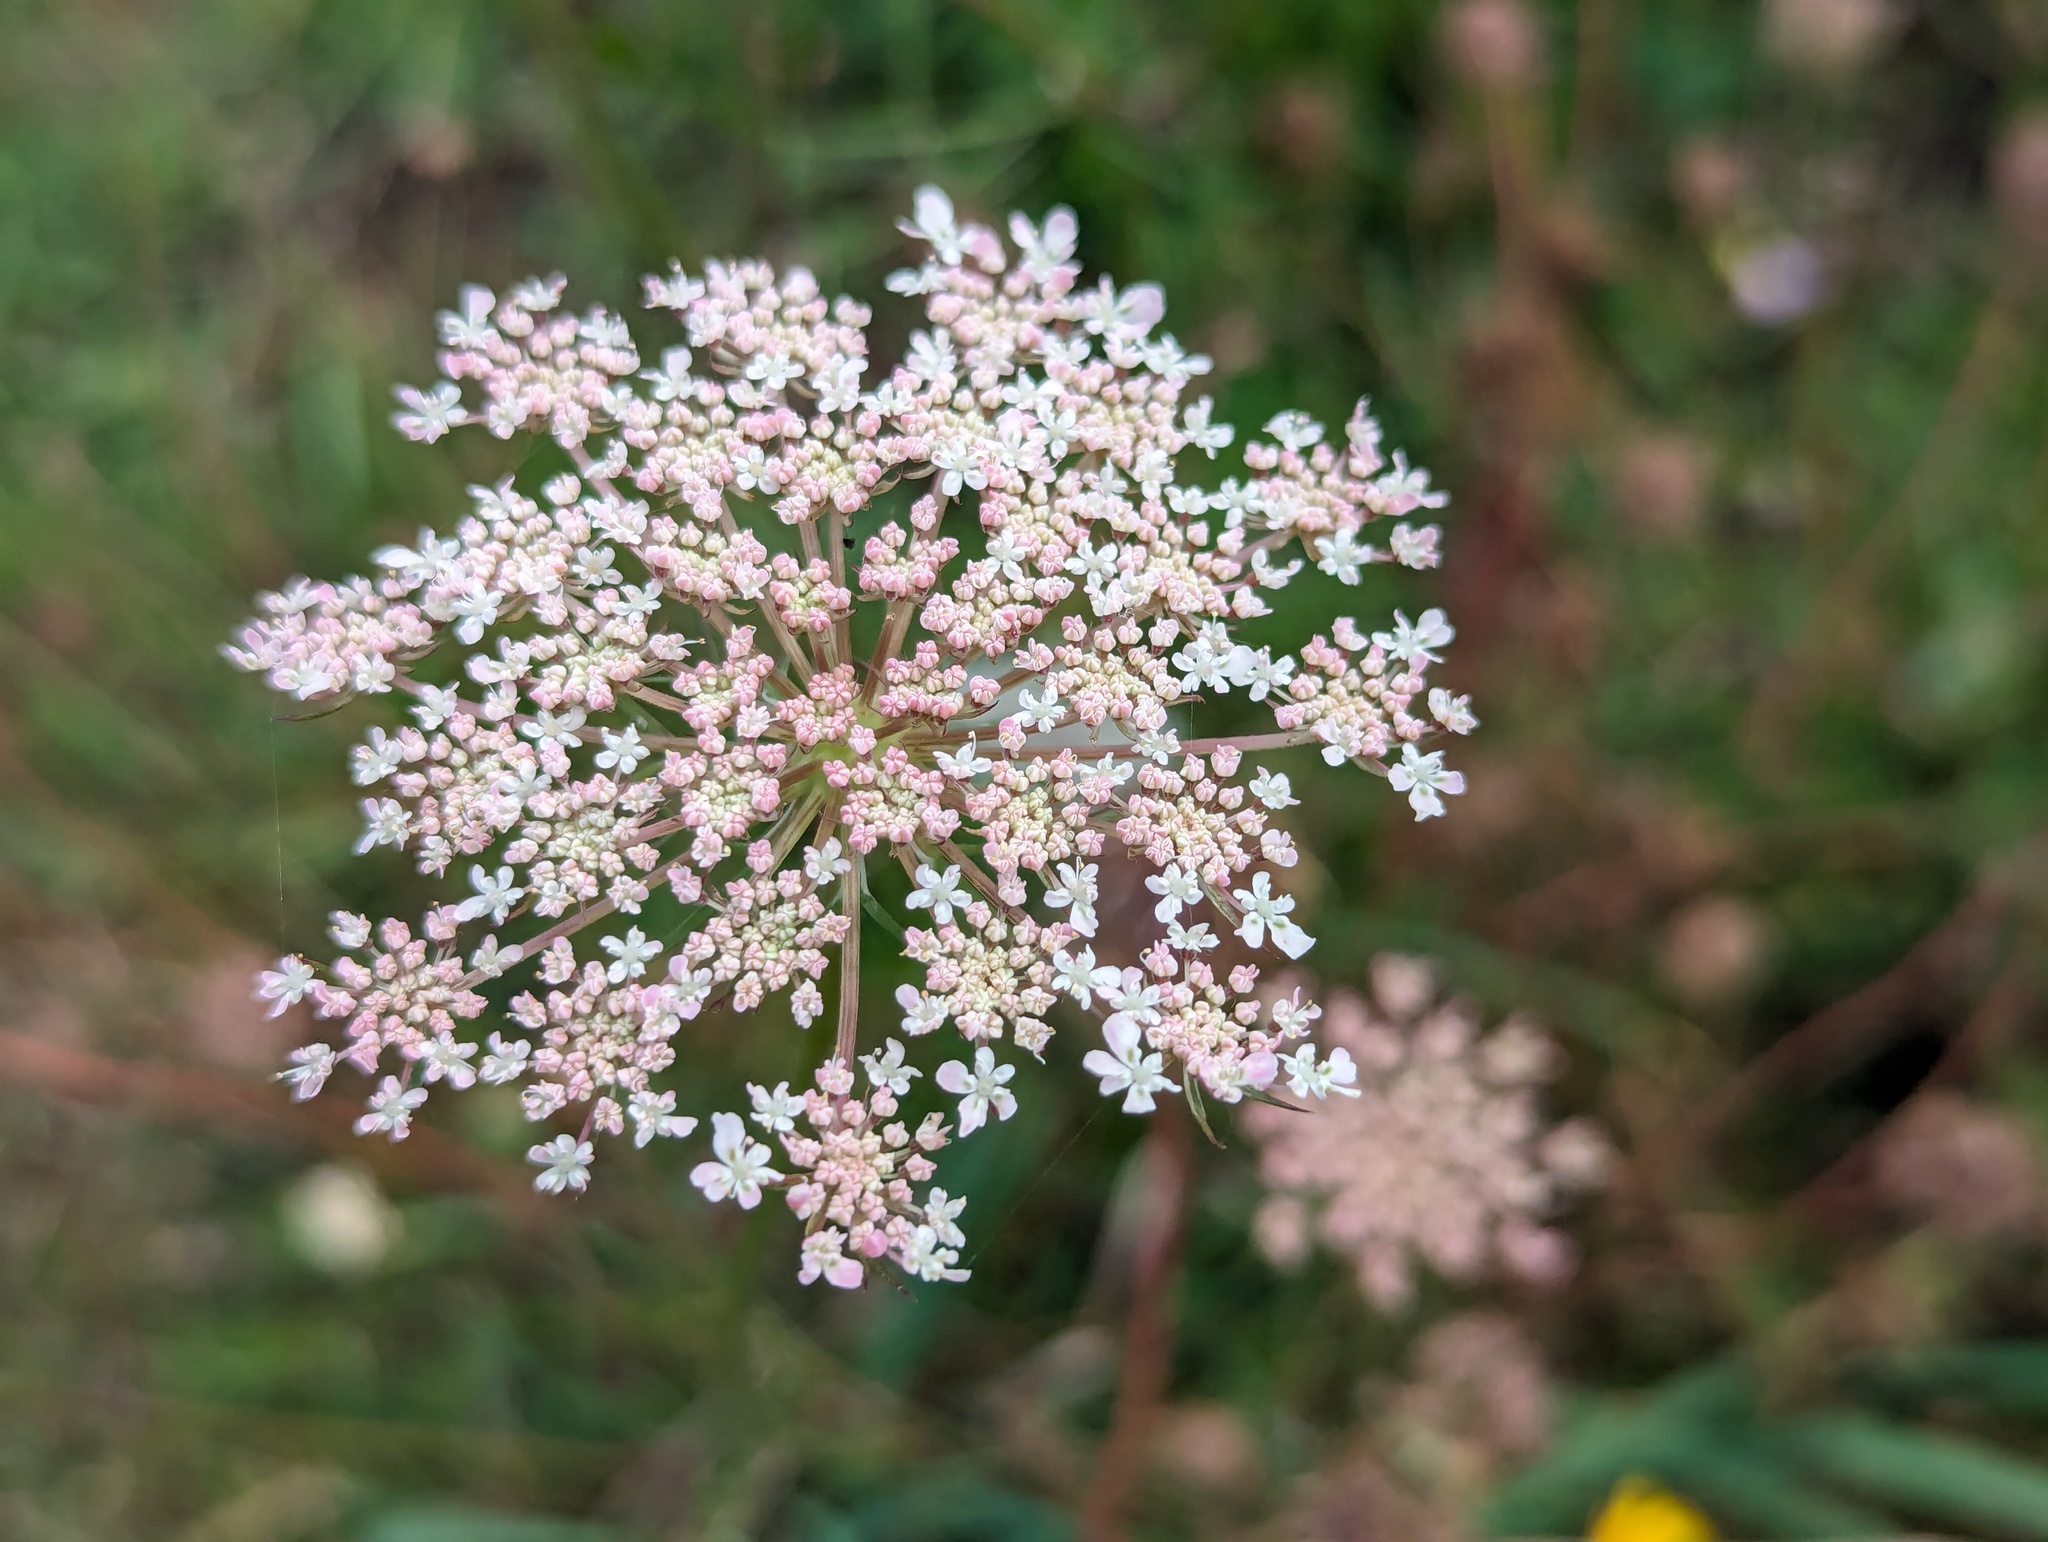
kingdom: Plantae
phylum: Tracheophyta
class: Magnoliopsida
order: Apiales
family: Apiaceae
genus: Daucus
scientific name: Daucus carota
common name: Wild carrot
